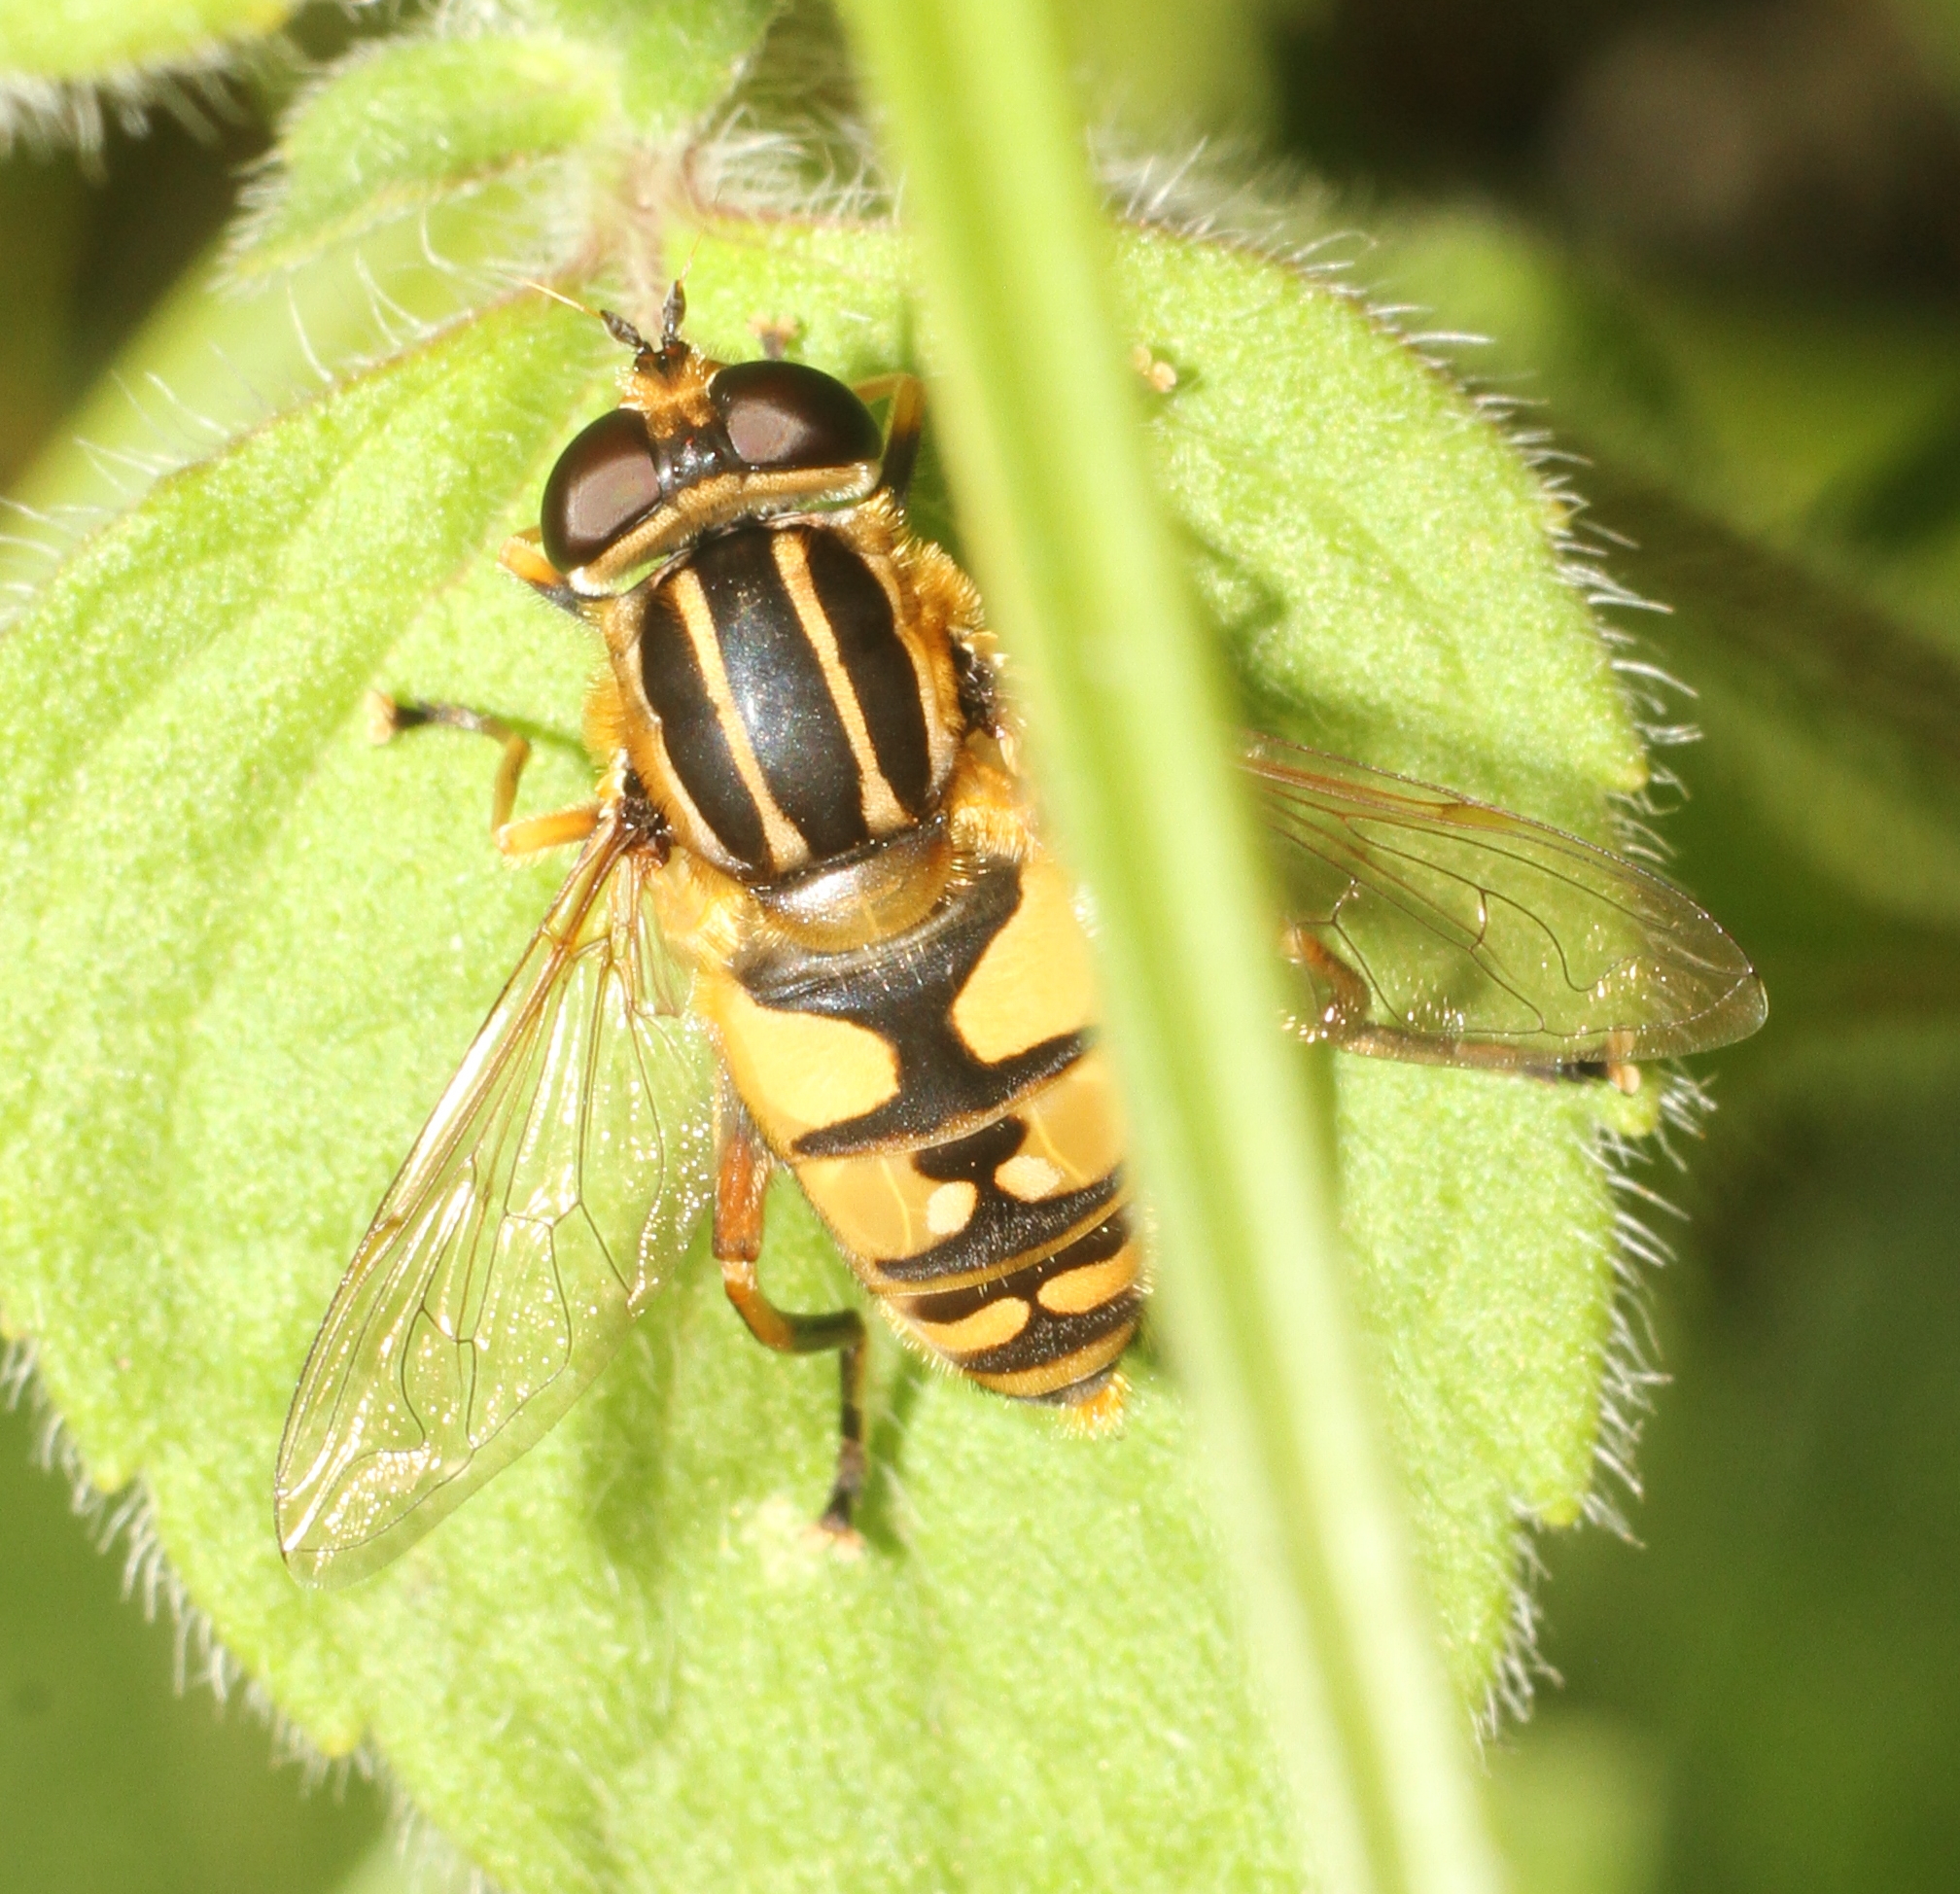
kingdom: Animalia
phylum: Arthropoda
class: Insecta
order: Diptera
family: Syrphidae
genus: Helophilus
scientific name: Helophilus pendulus
